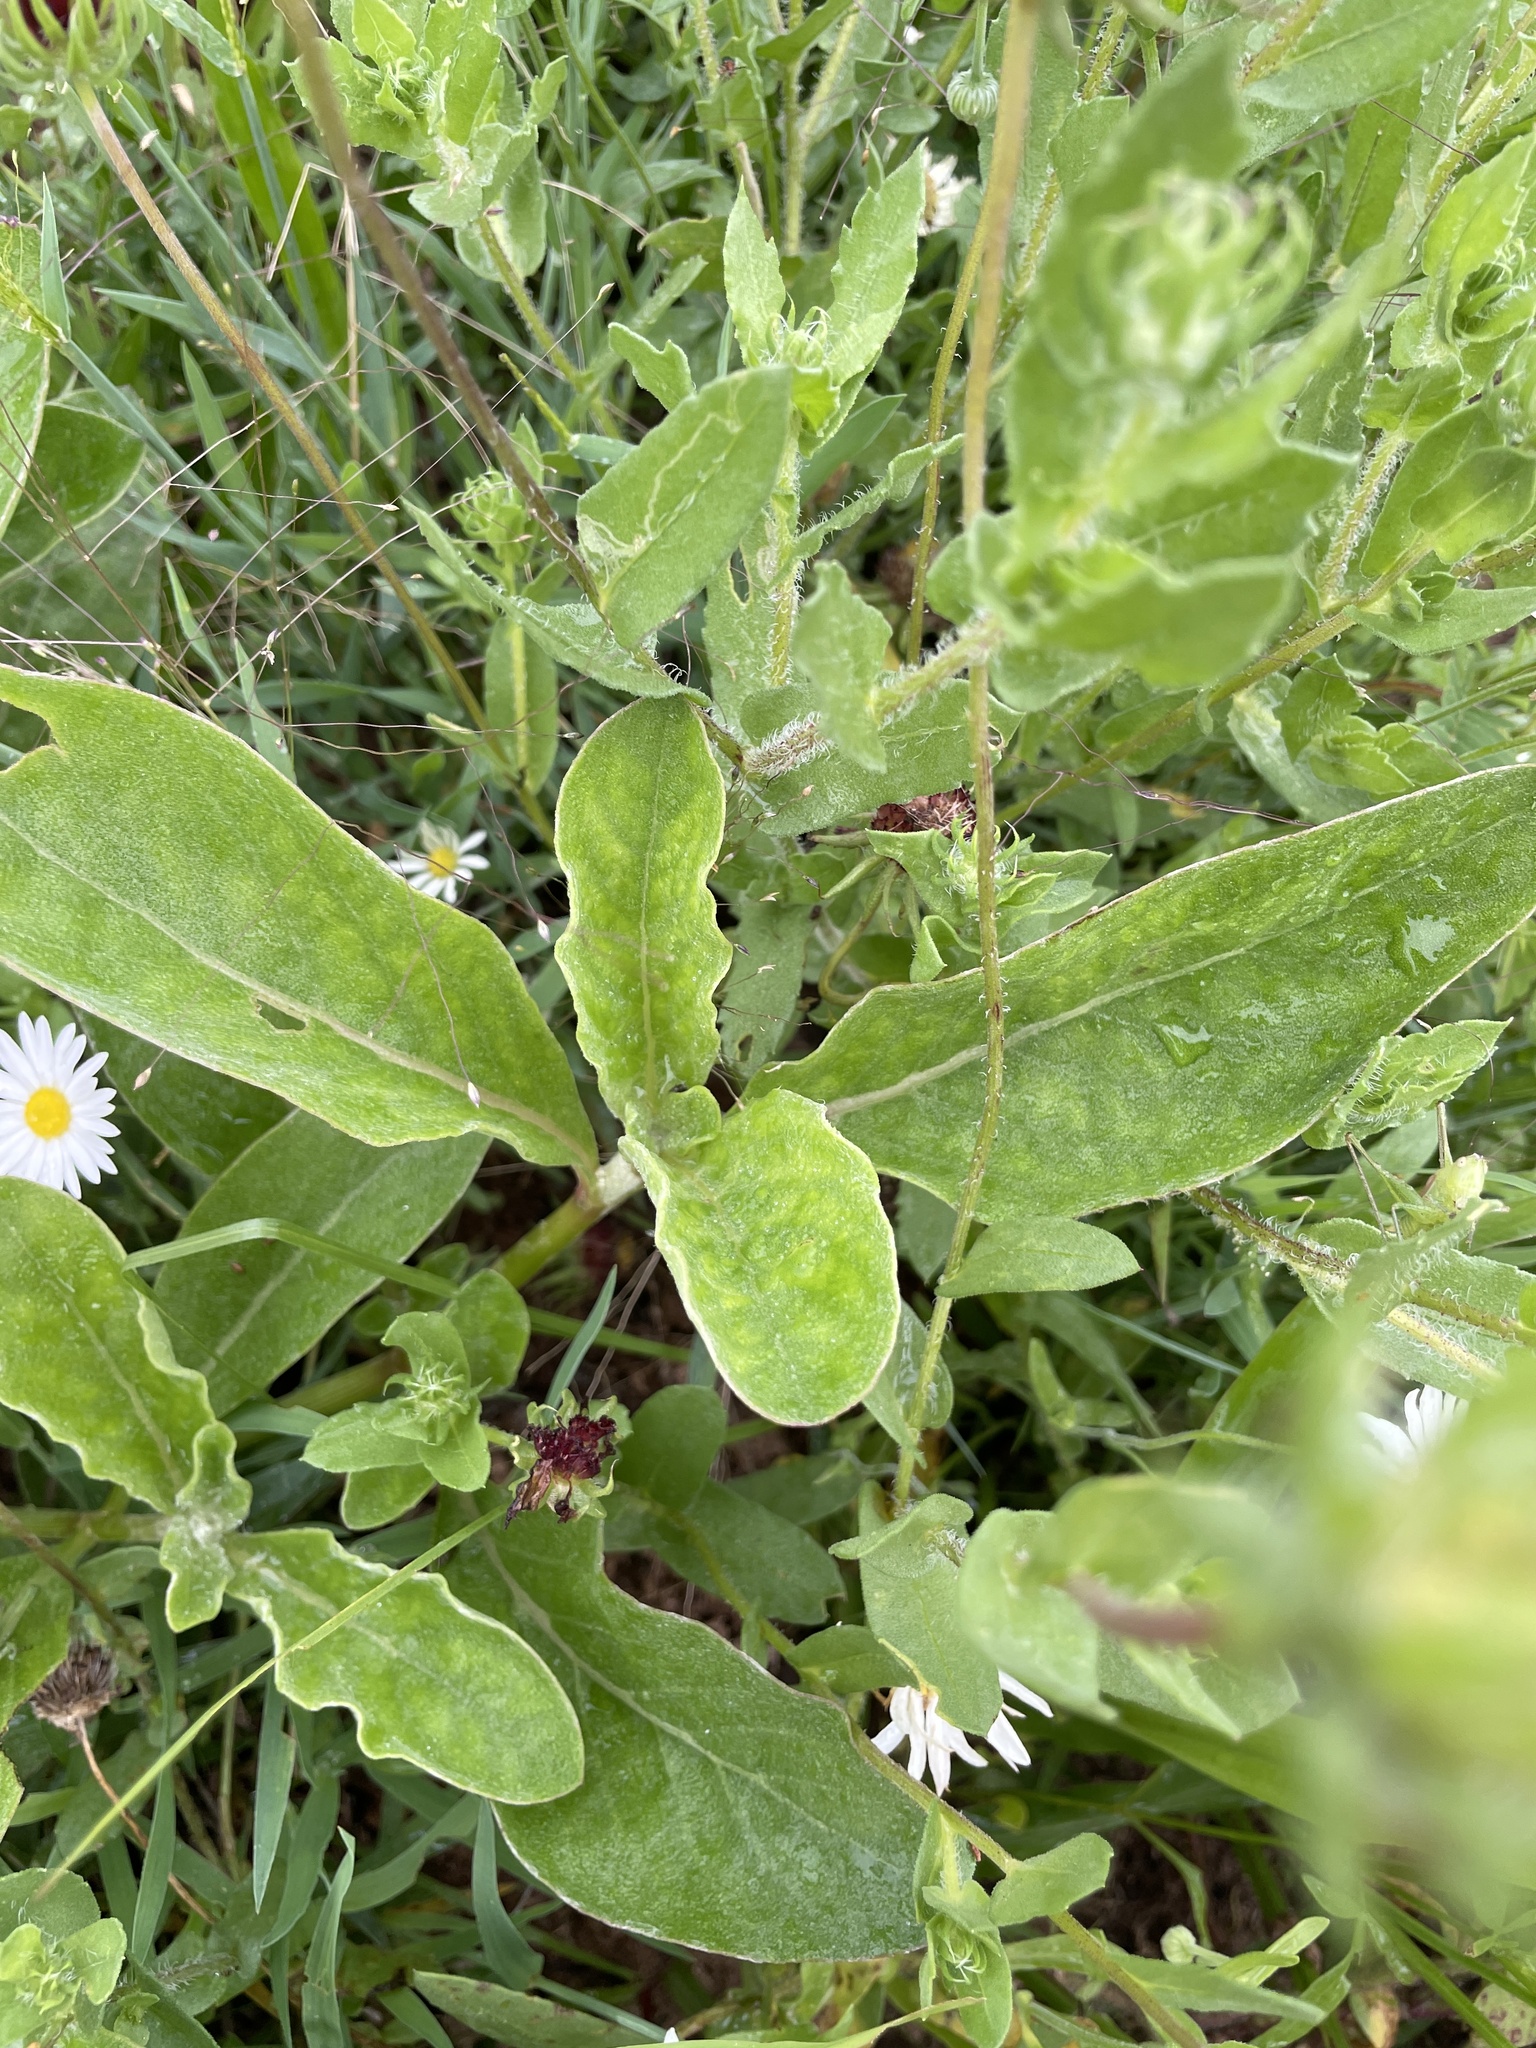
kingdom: Plantae
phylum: Tracheophyta
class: Magnoliopsida
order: Gentianales
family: Apocynaceae
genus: Asclepias
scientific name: Asclepias oenotheroides
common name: Zizotes milkweed
